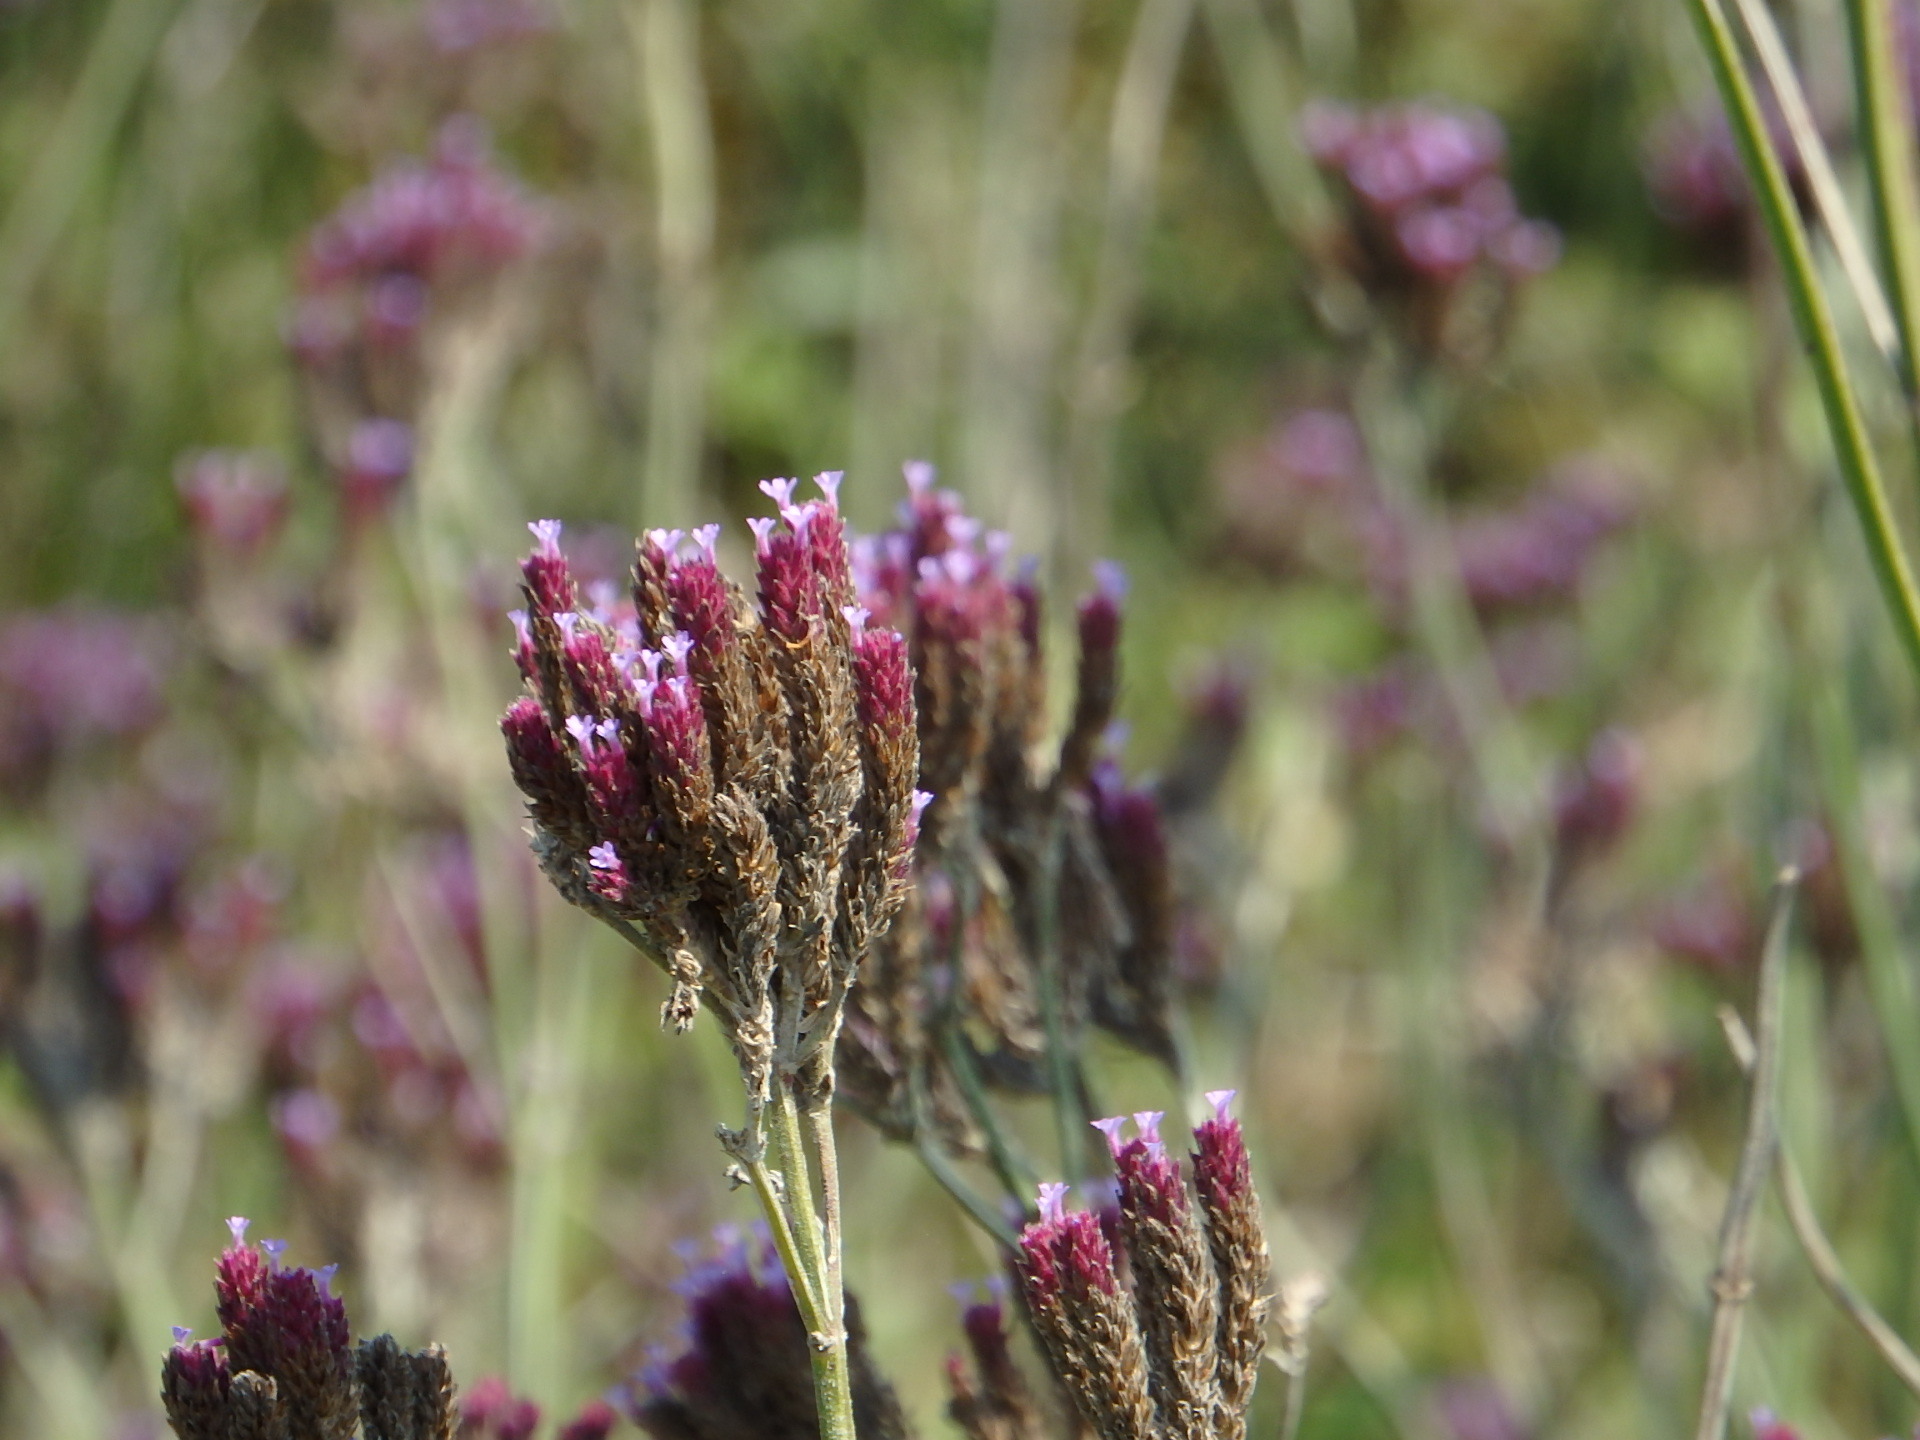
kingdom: Plantae
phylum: Tracheophyta
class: Magnoliopsida
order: Lamiales
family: Verbenaceae
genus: Verbena
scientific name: Verbena incompta
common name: Purpletop vervain
